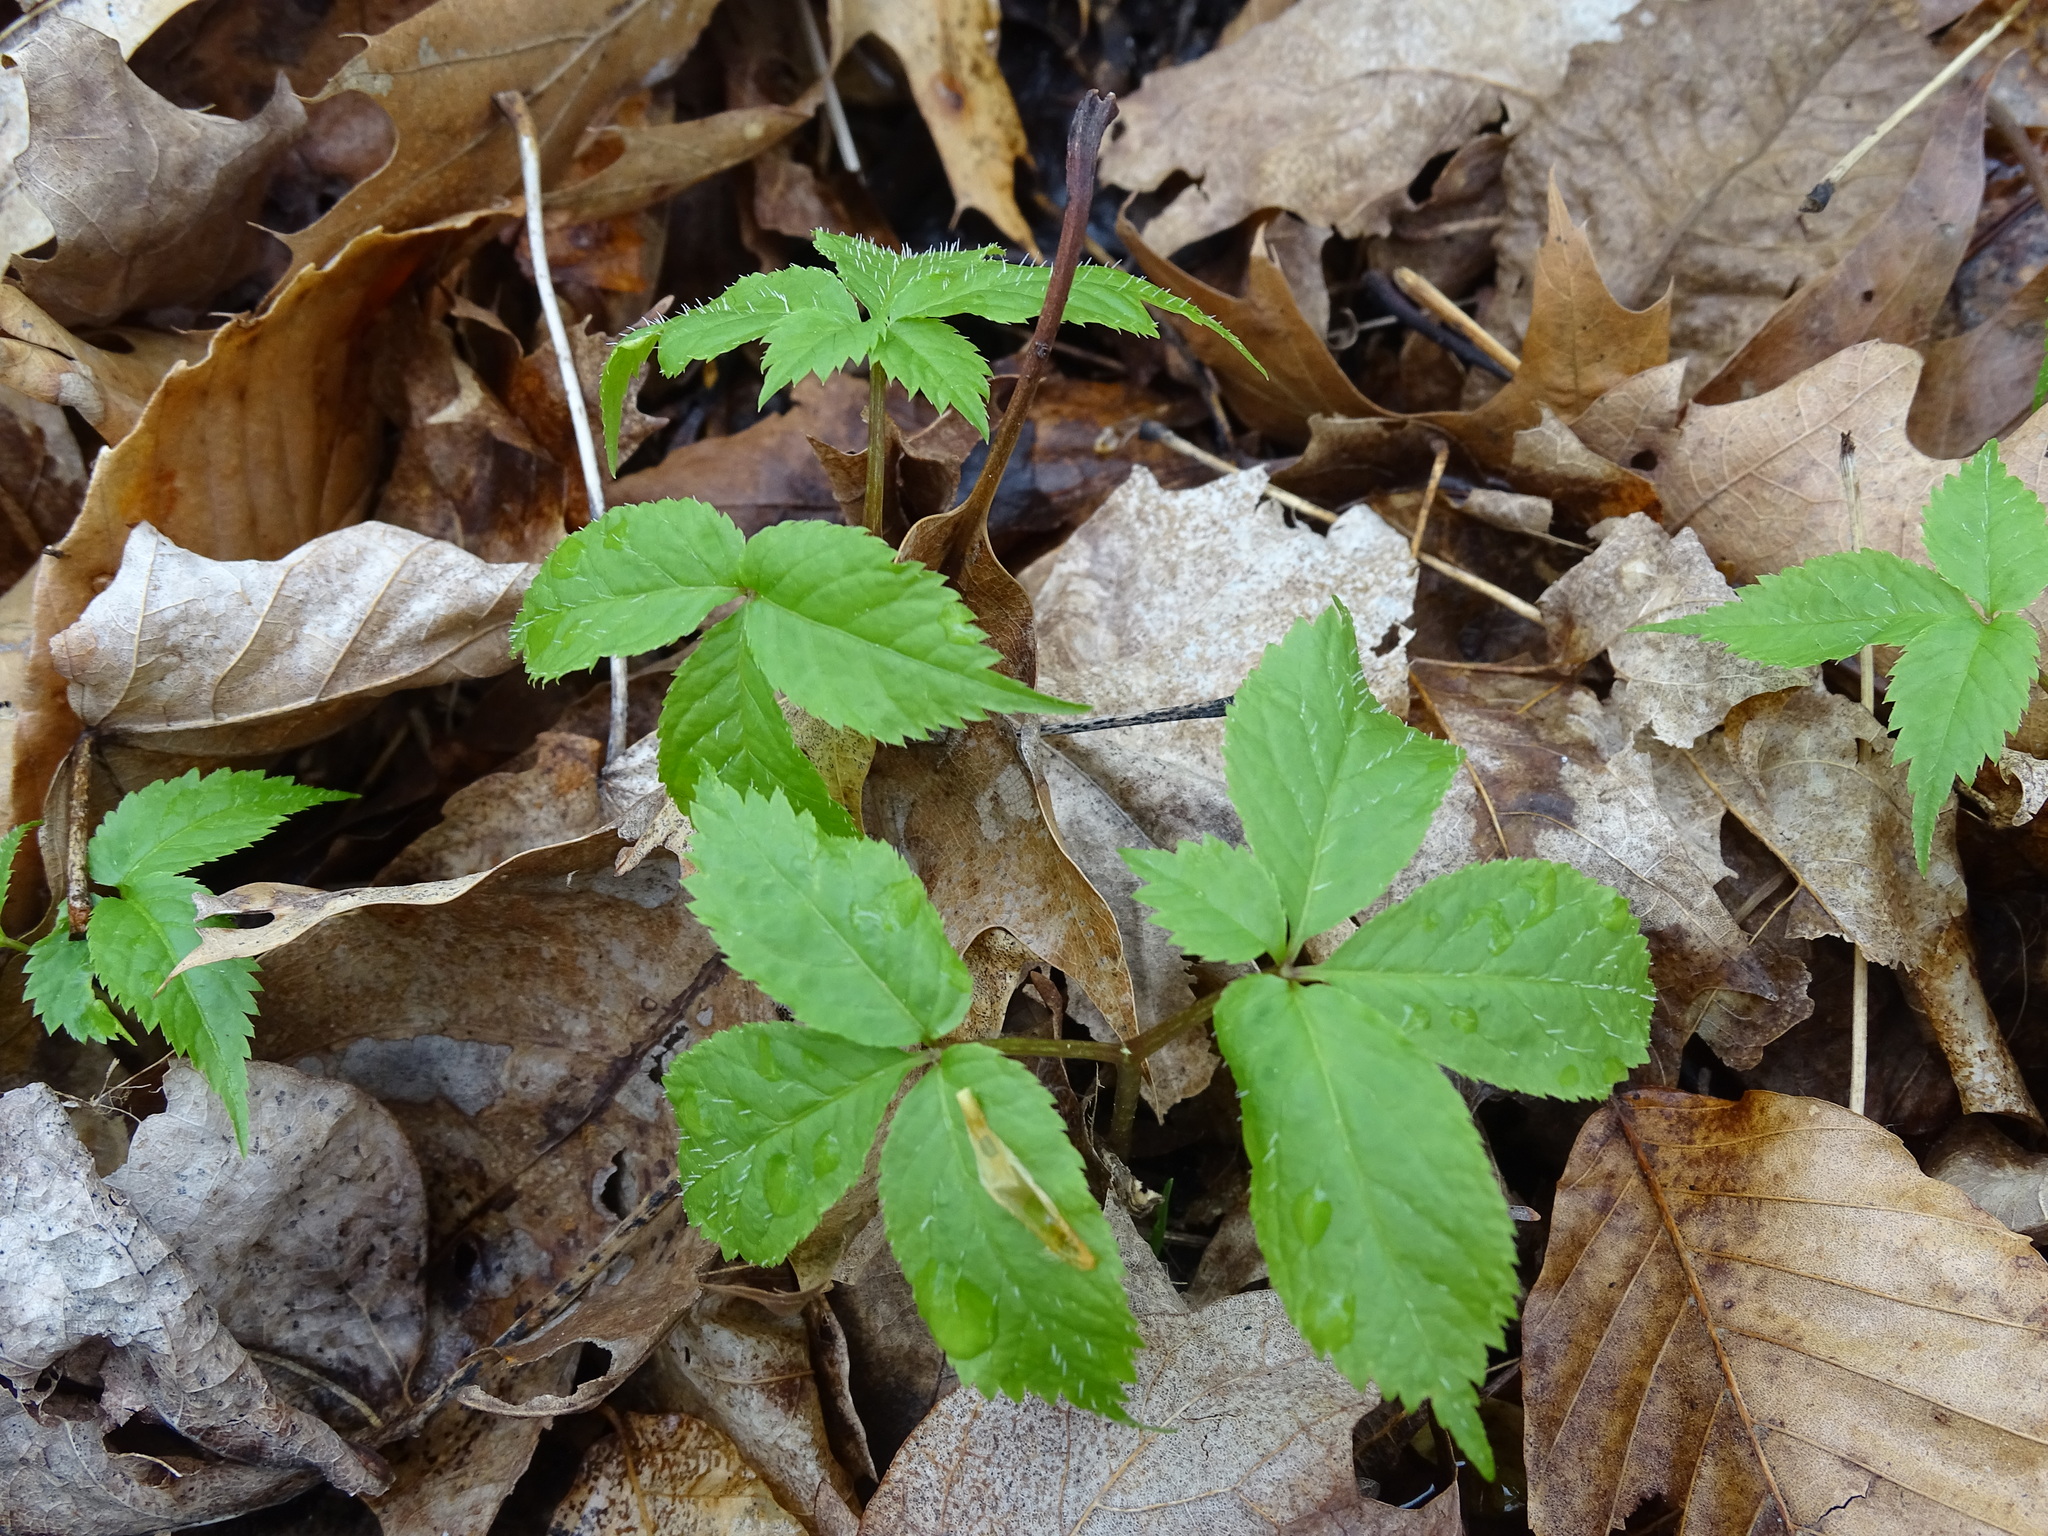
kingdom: Plantae
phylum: Tracheophyta
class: Magnoliopsida
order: Apiales
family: Araliaceae
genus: Panax
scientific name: Panax quinquefolius
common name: American ginseng
